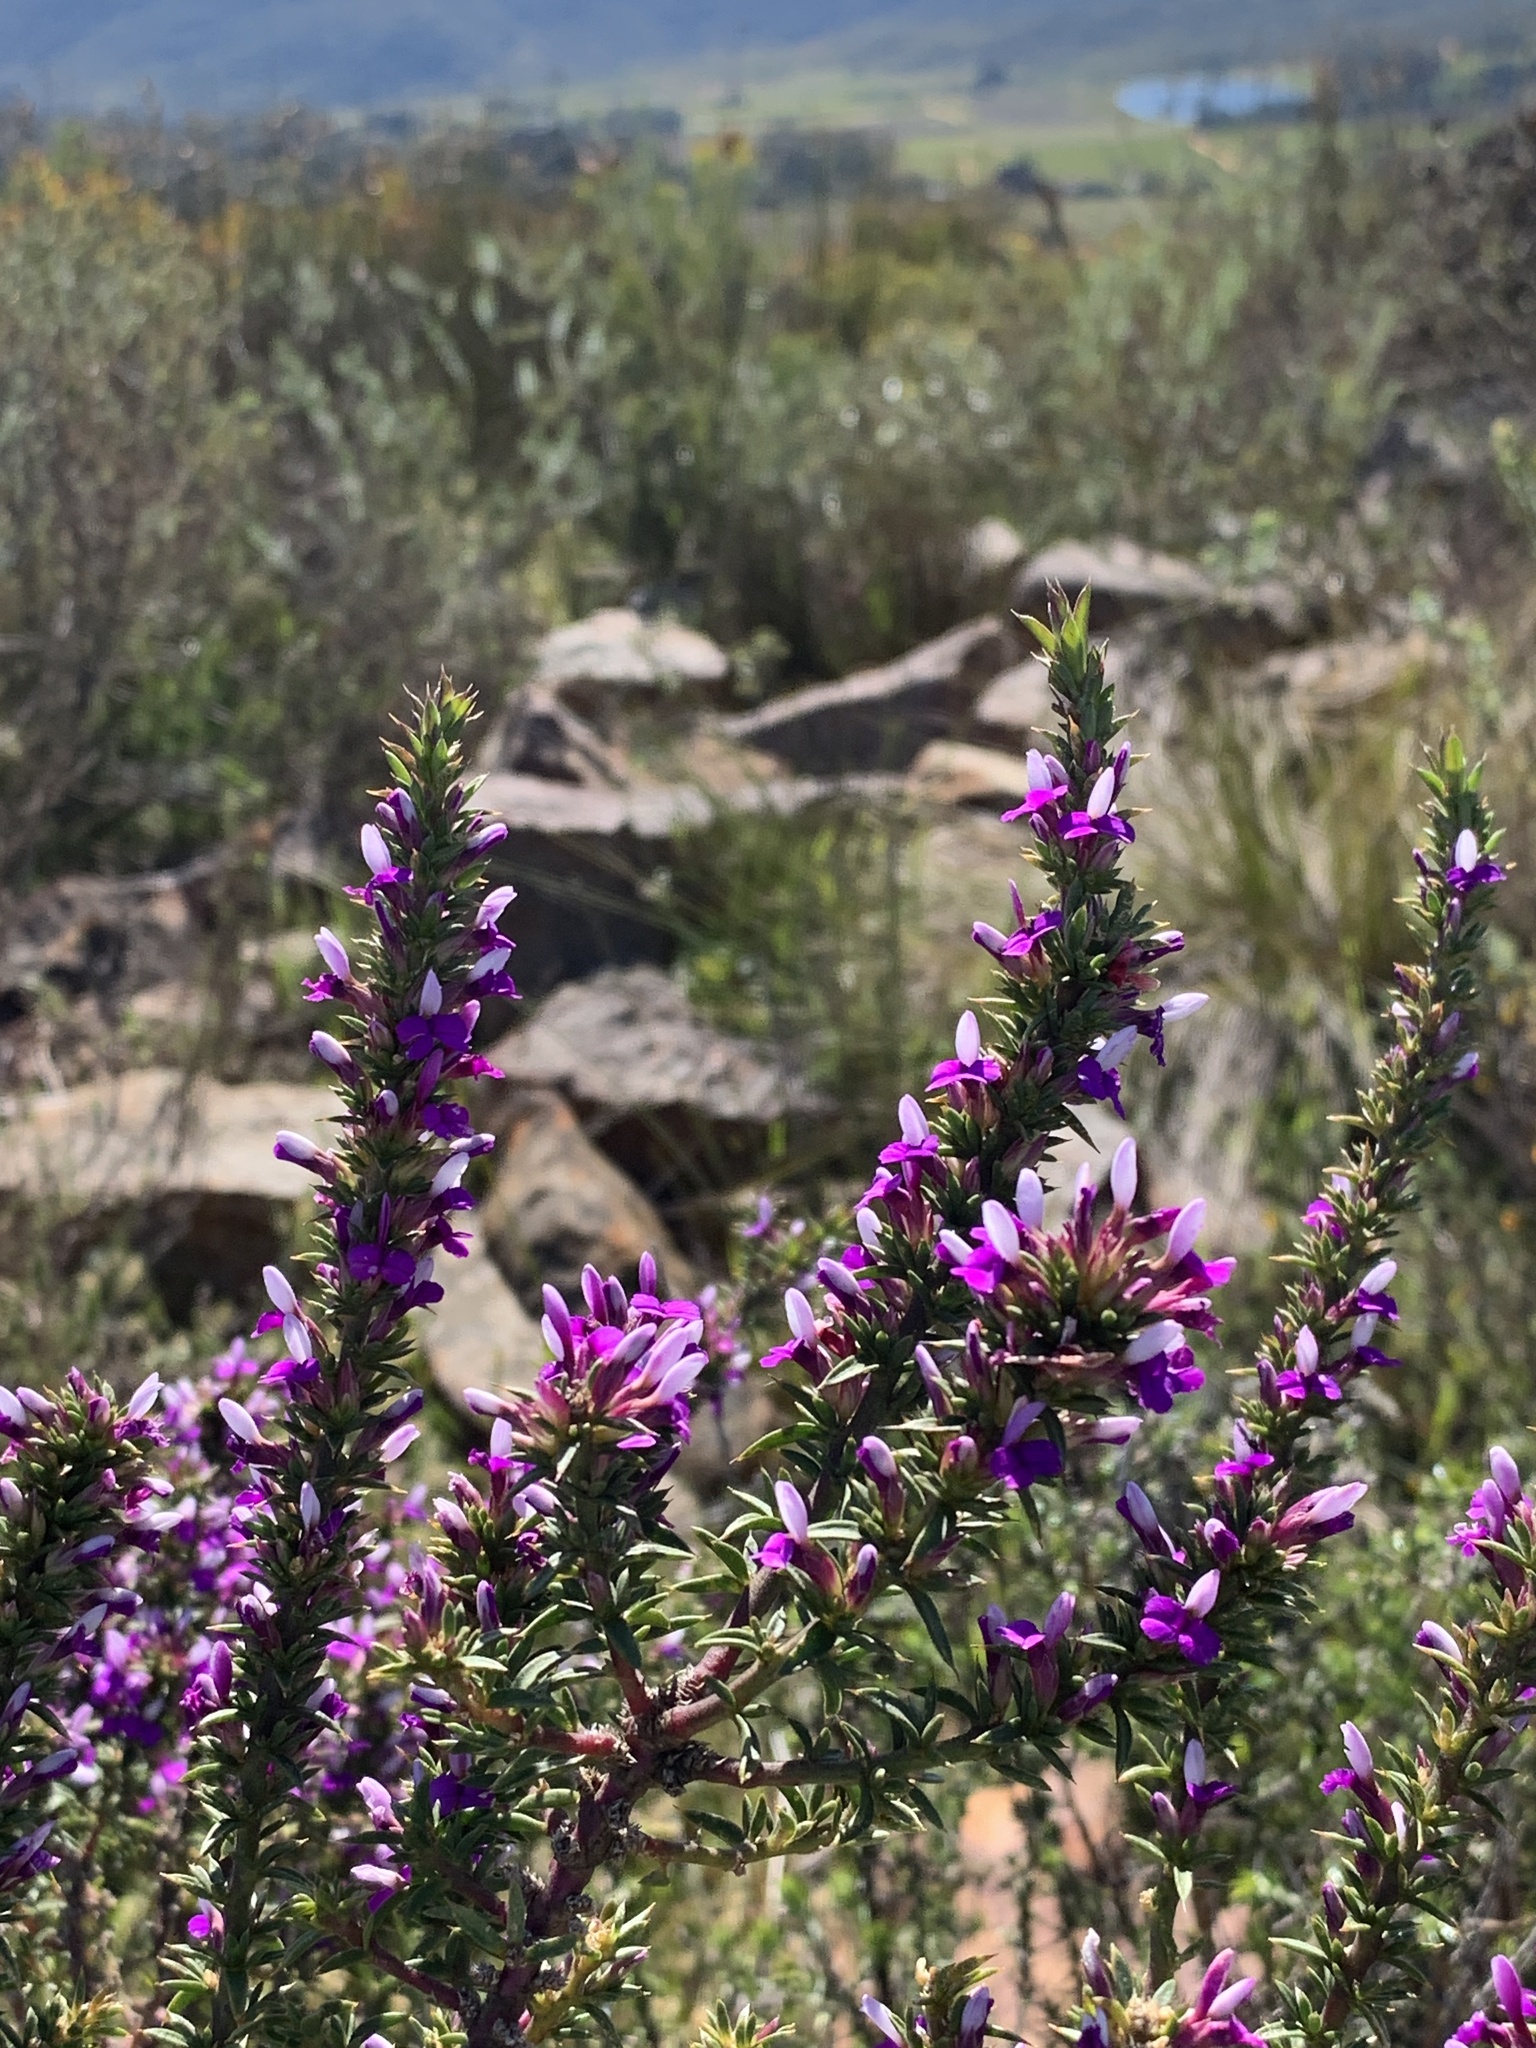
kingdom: Plantae
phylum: Tracheophyta
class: Magnoliopsida
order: Fabales
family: Polygalaceae
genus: Muraltia
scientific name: Muraltia heisteria
